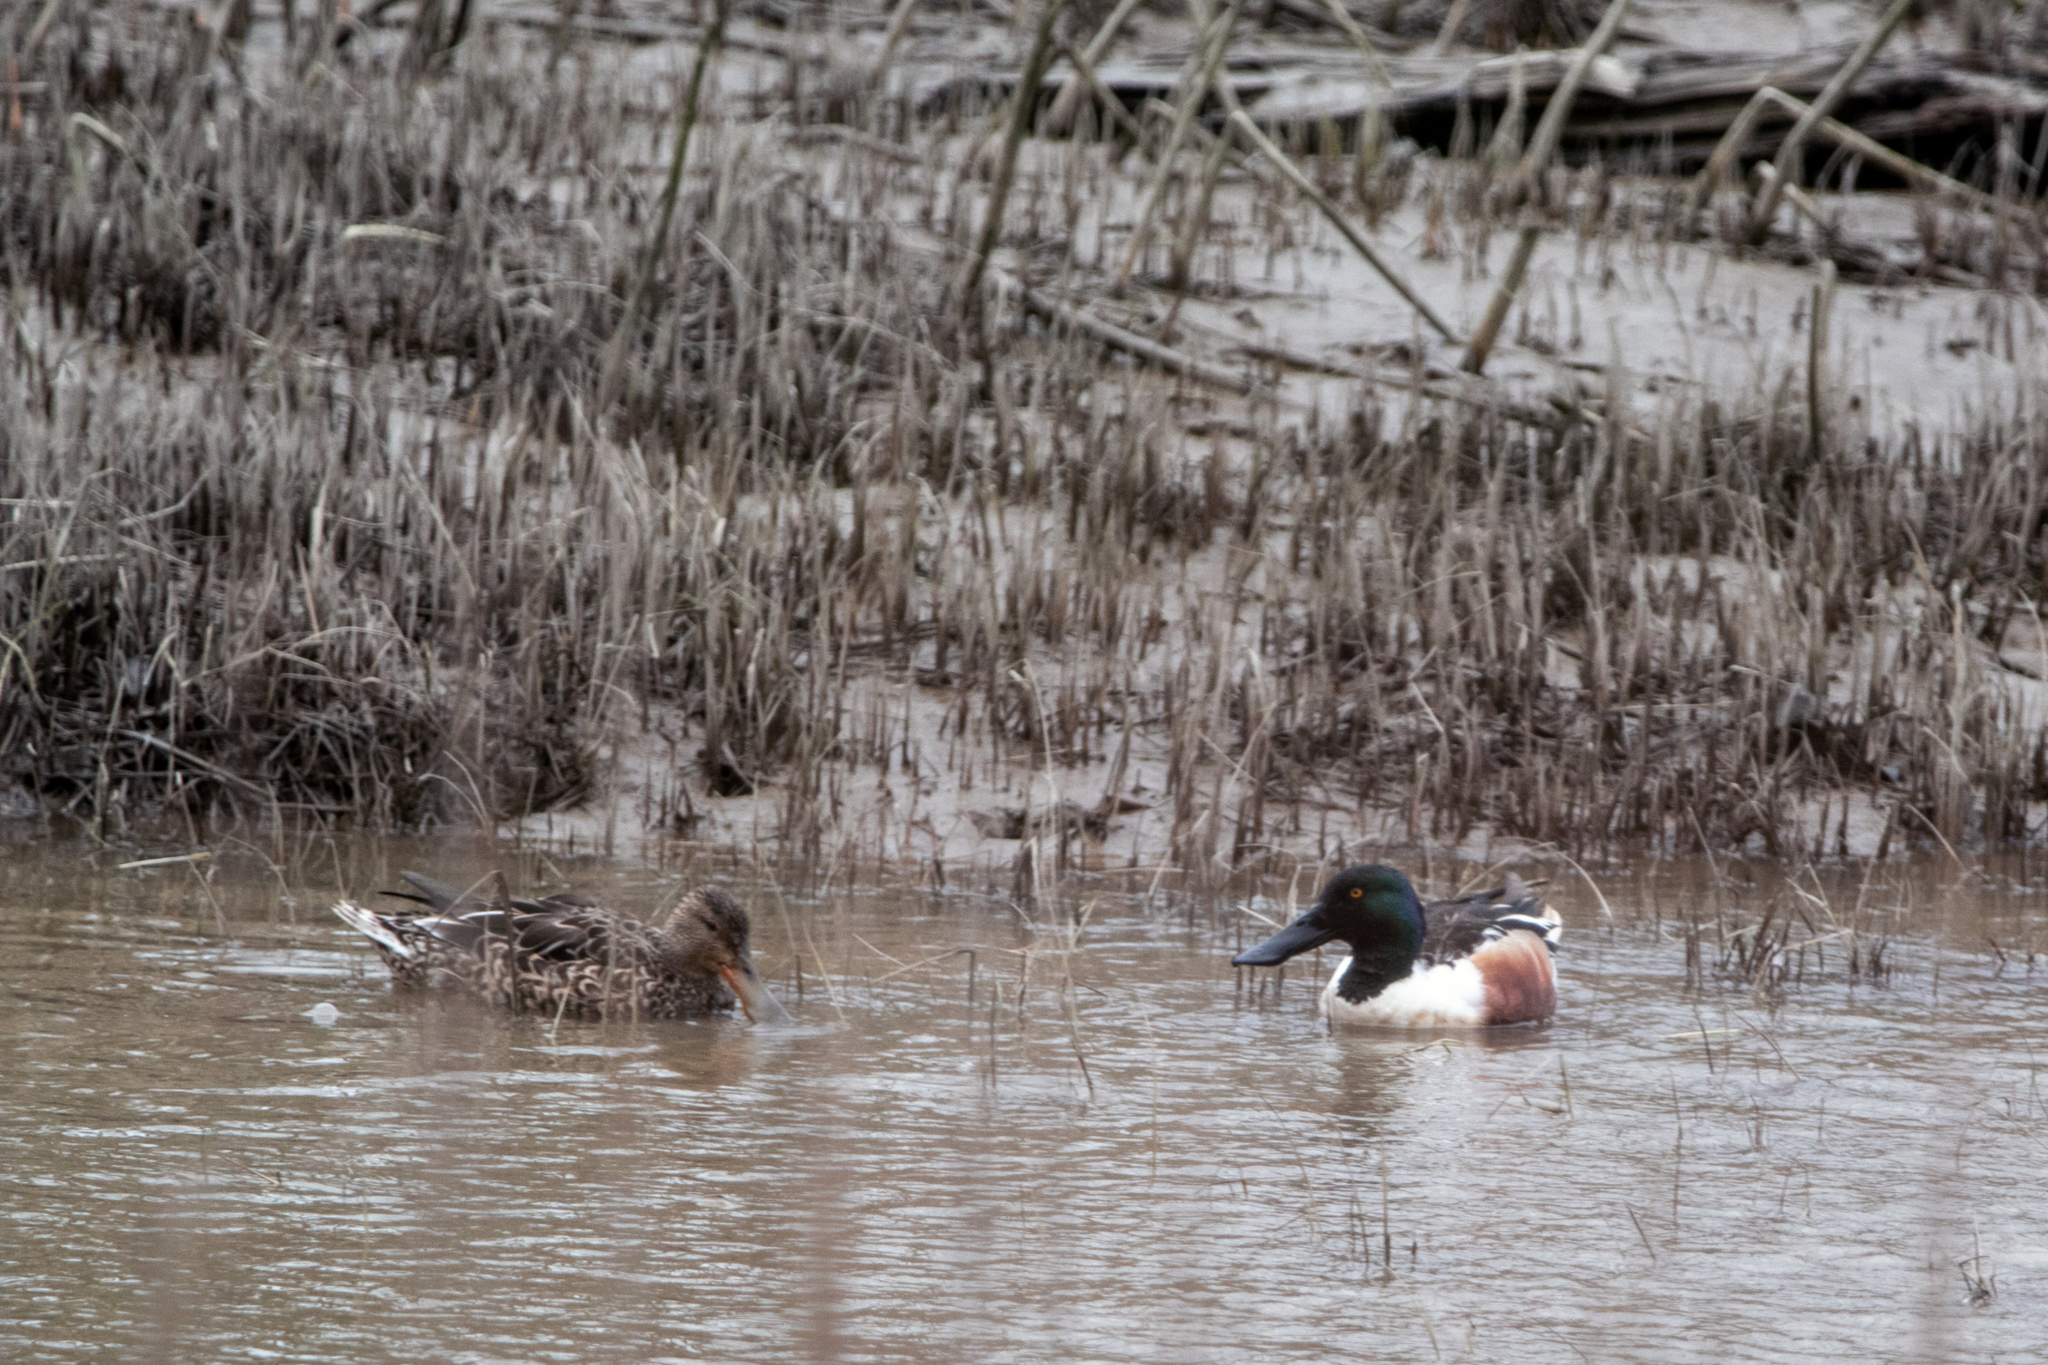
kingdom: Animalia
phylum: Chordata
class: Aves
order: Anseriformes
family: Anatidae
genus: Spatula
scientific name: Spatula clypeata
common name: Northern shoveler
